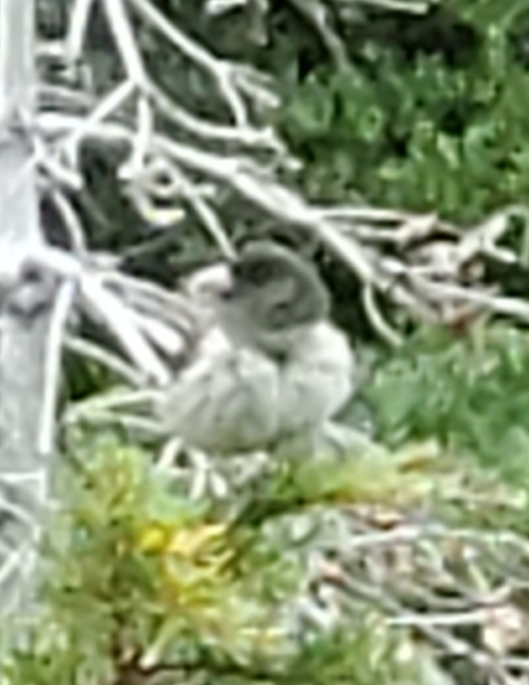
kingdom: Animalia
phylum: Chordata
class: Aves
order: Passeriformes
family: Passerellidae
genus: Junco
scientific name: Junco hyemalis
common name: Dark-eyed junco
